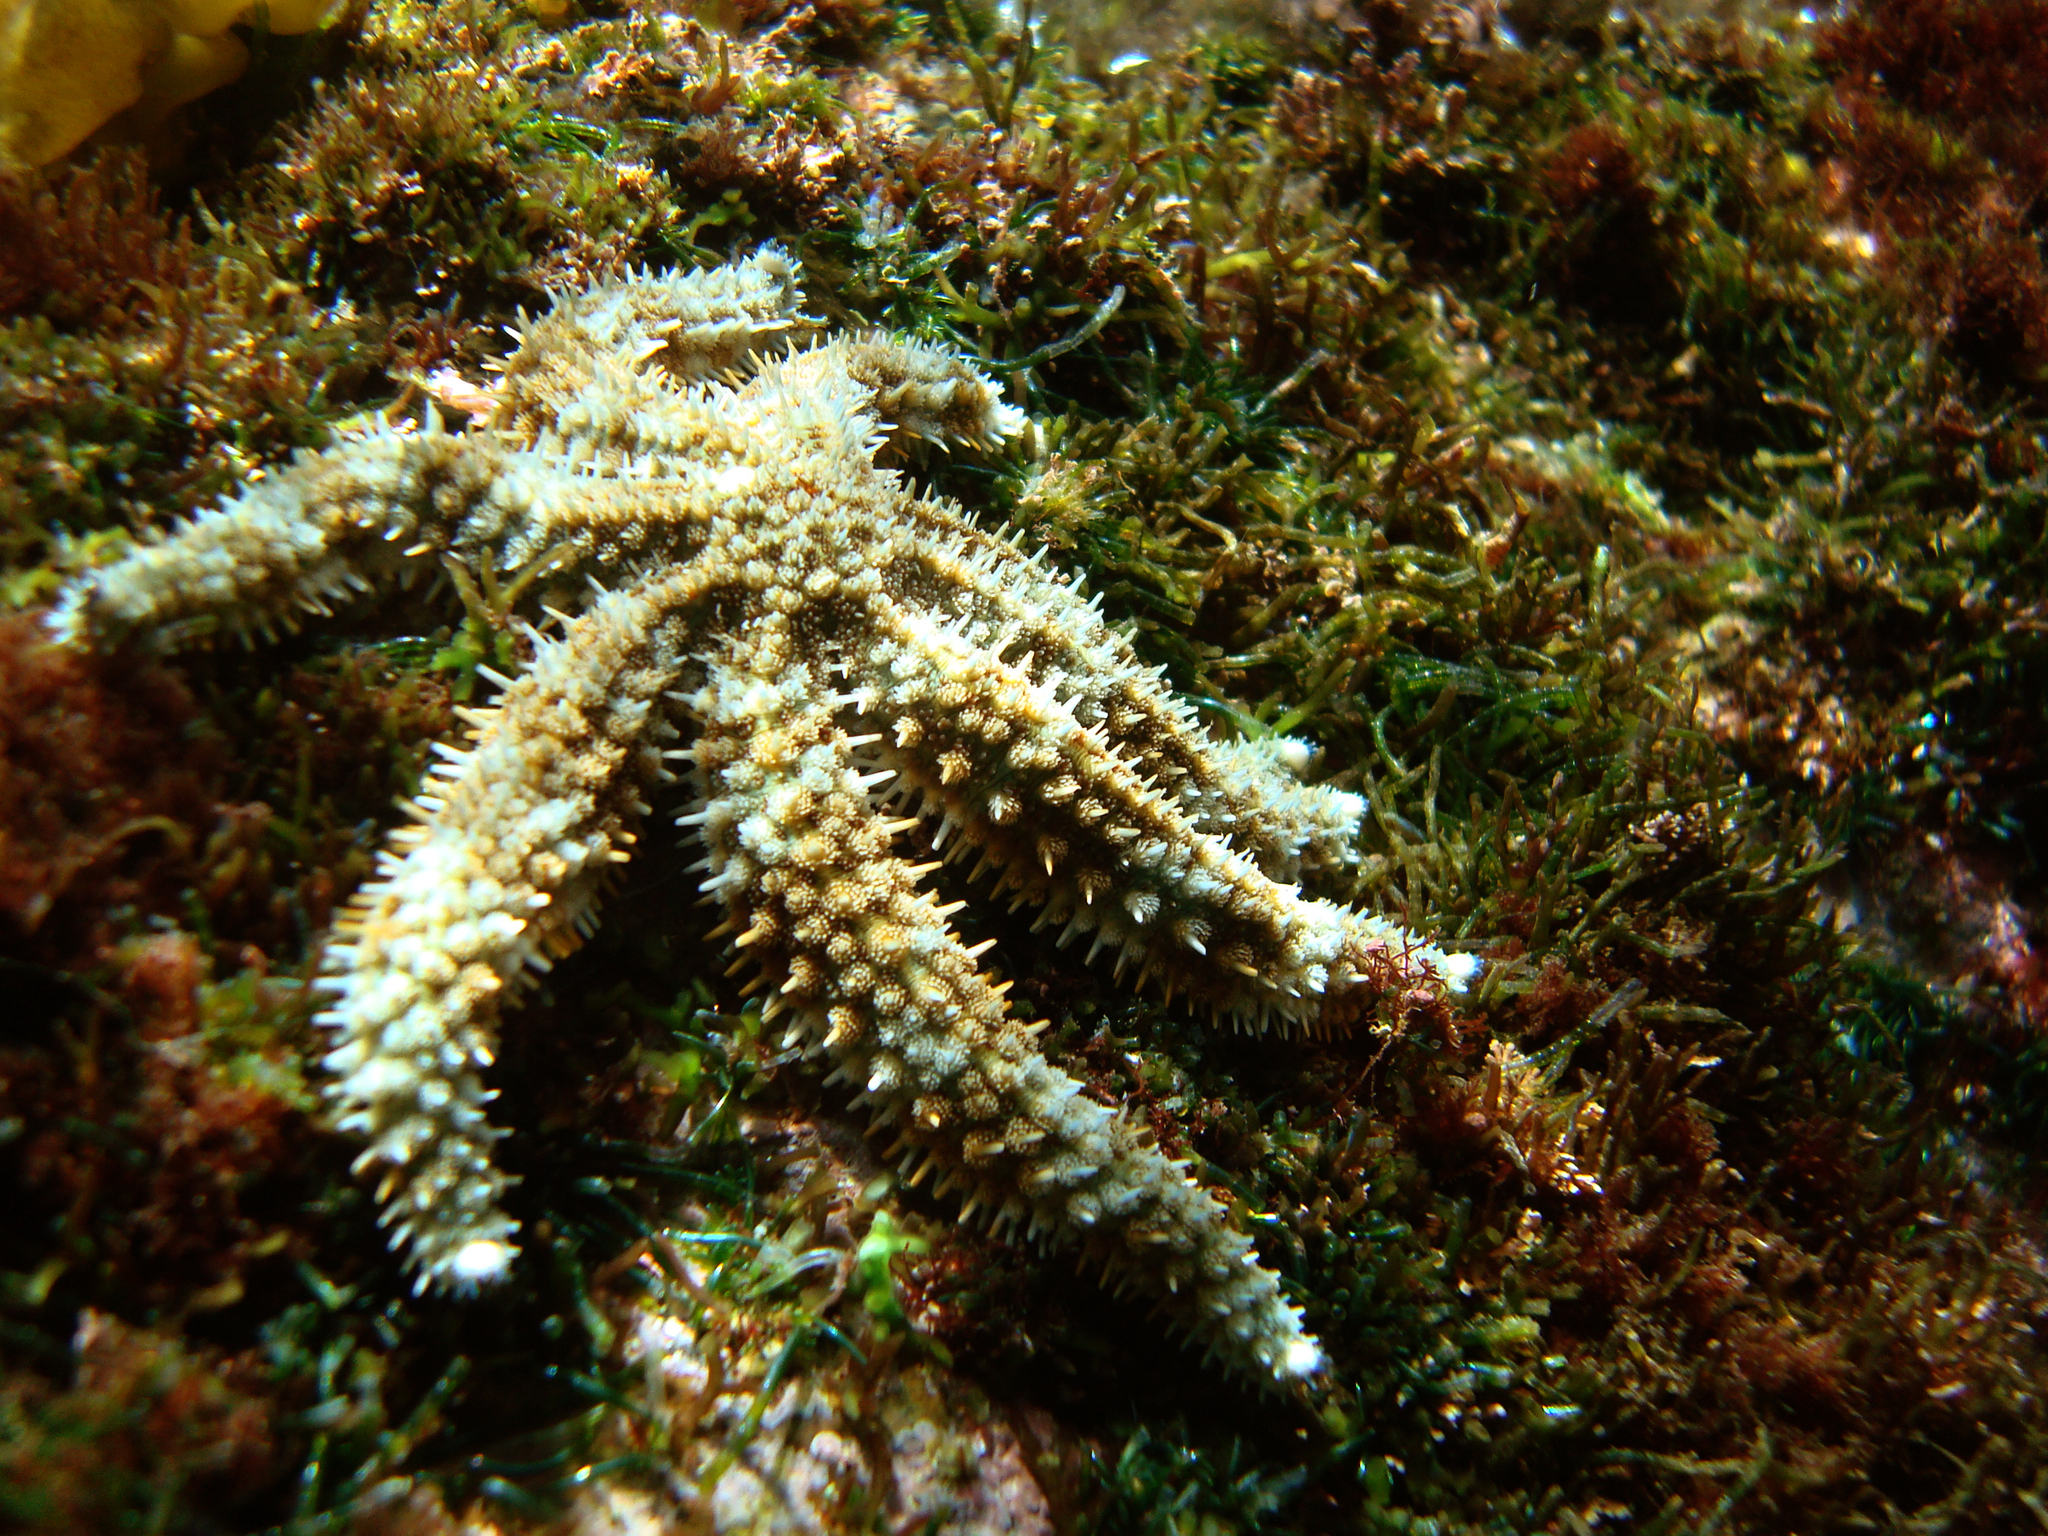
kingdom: Animalia
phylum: Echinodermata
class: Asteroidea
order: Forcipulatida
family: Asteriidae
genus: Astrostole
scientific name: Astrostole platei
